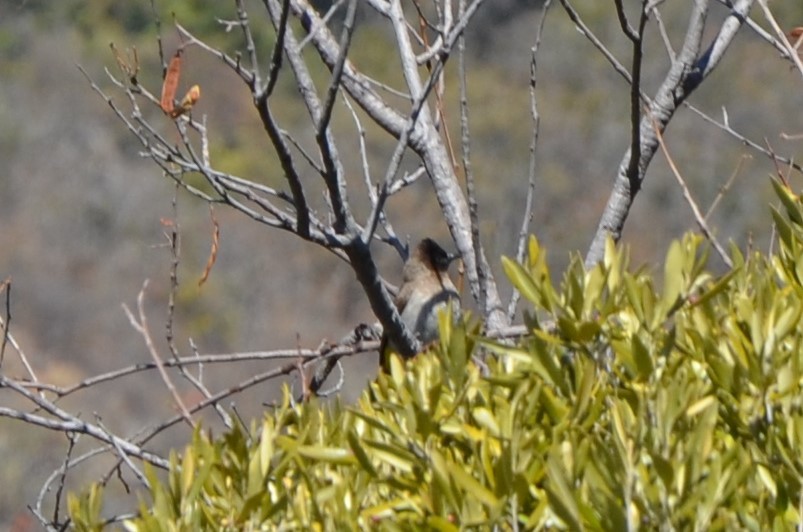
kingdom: Animalia
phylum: Chordata
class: Aves
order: Passeriformes
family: Pycnonotidae
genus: Pycnonotus
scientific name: Pycnonotus barbatus
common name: Common bulbul
